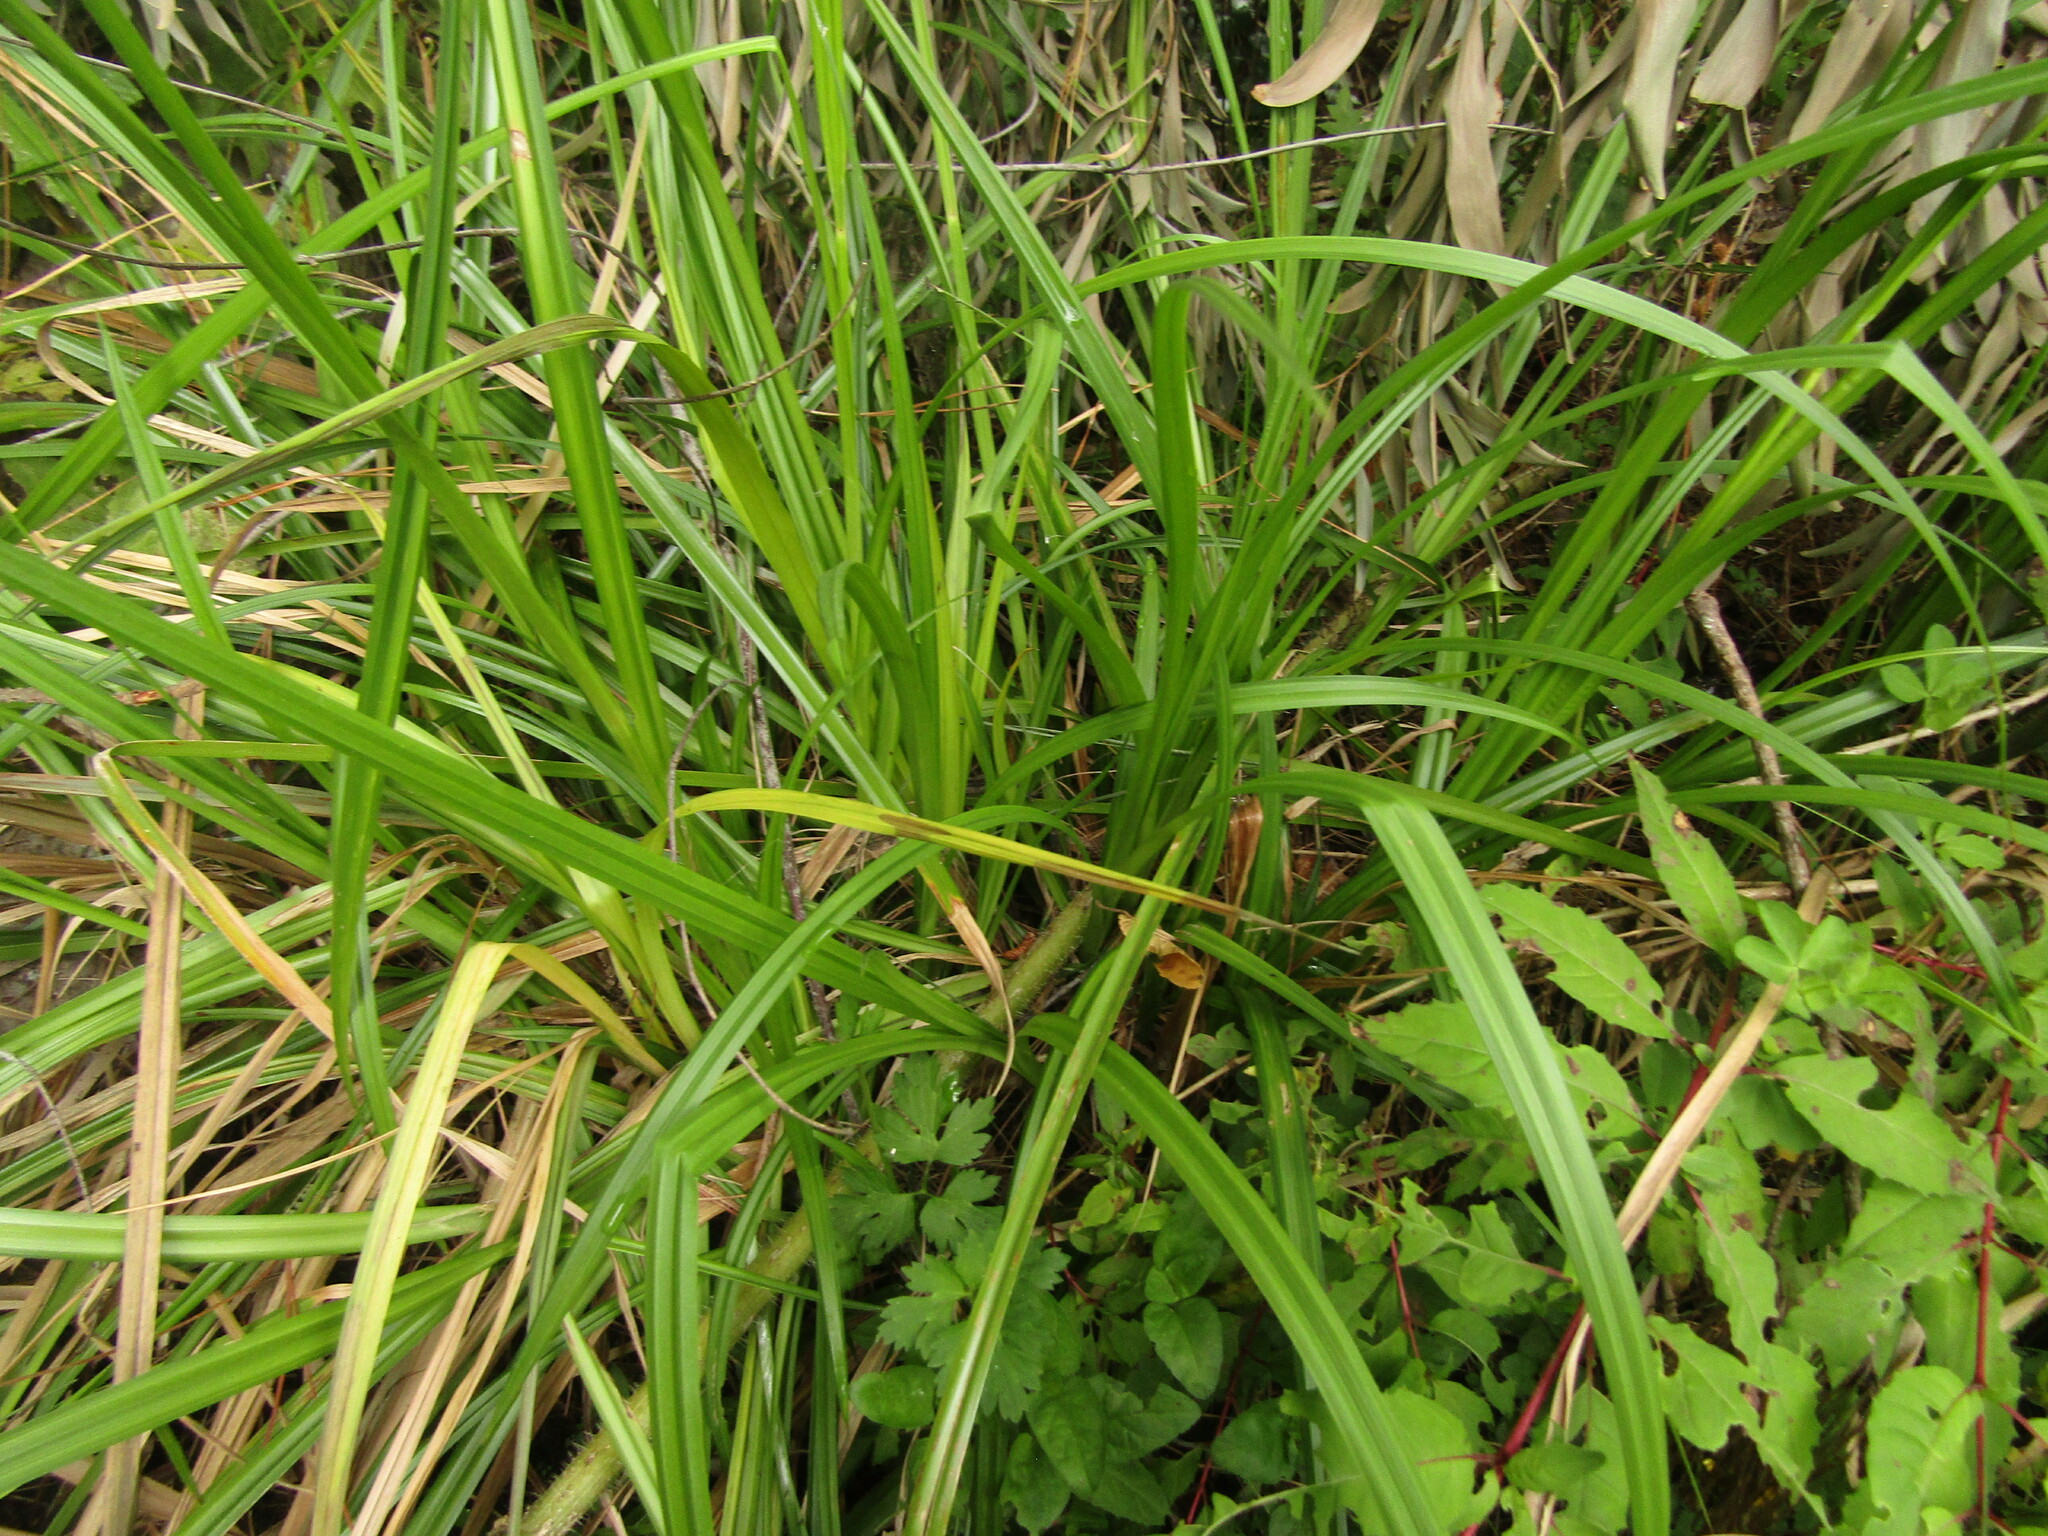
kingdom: Plantae
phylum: Tracheophyta
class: Liliopsida
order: Poales
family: Cyperaceae
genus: Carex
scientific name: Carex excelsa
